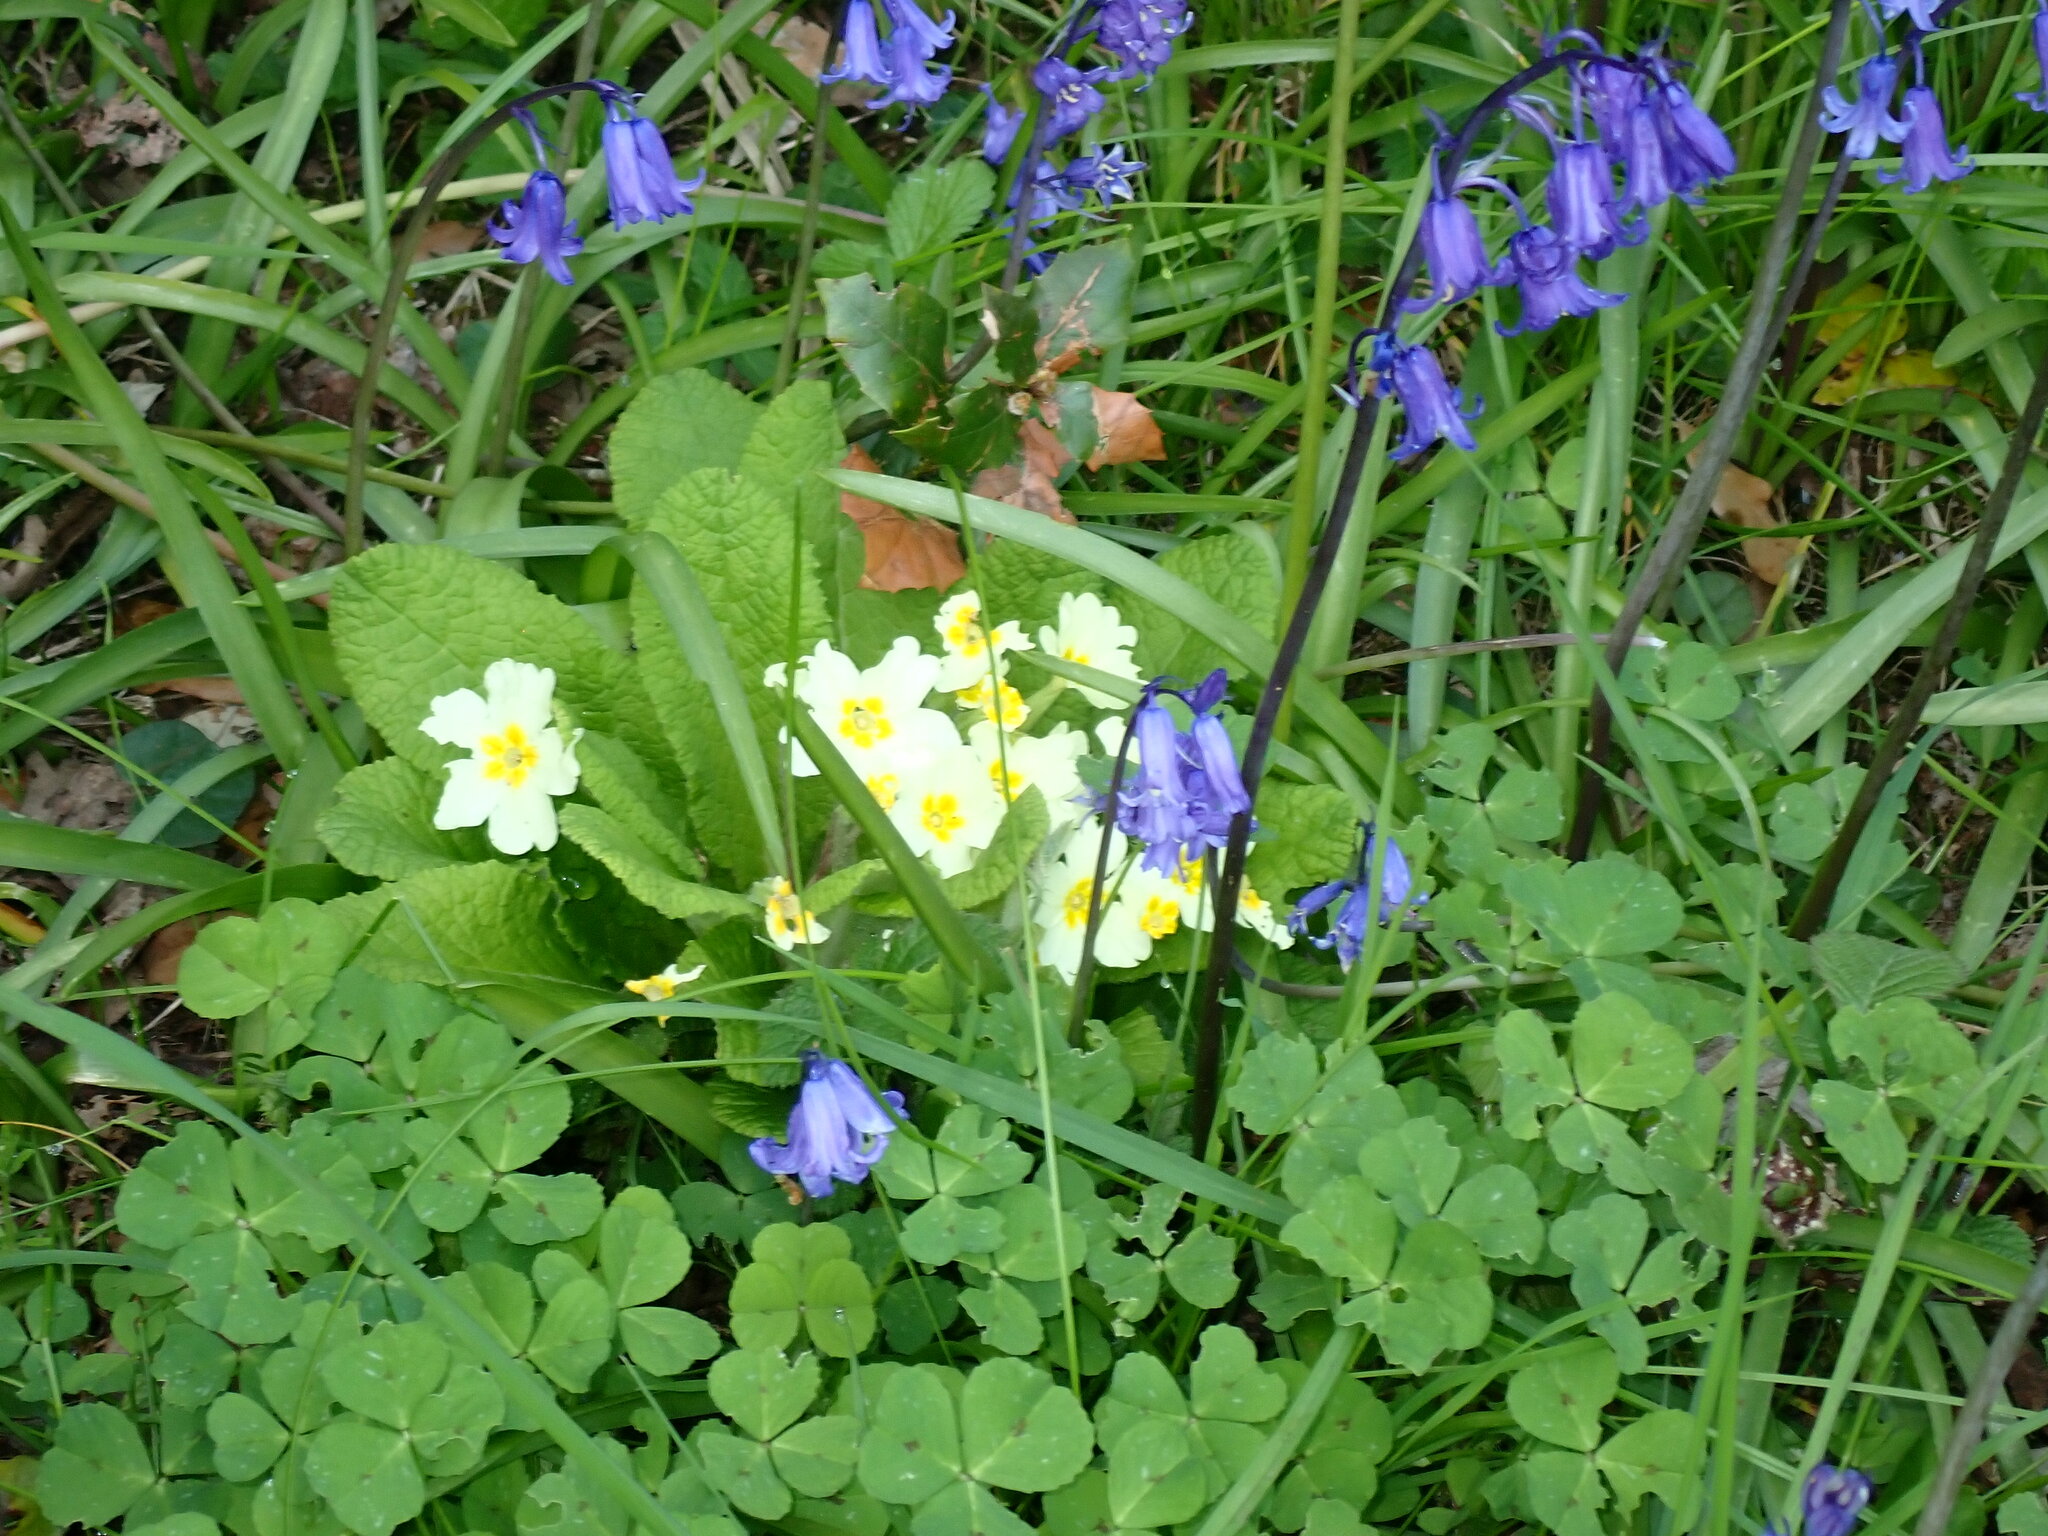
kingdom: Plantae
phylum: Tracheophyta
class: Magnoliopsida
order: Ericales
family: Primulaceae
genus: Primula
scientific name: Primula vulgaris
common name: Primrose
